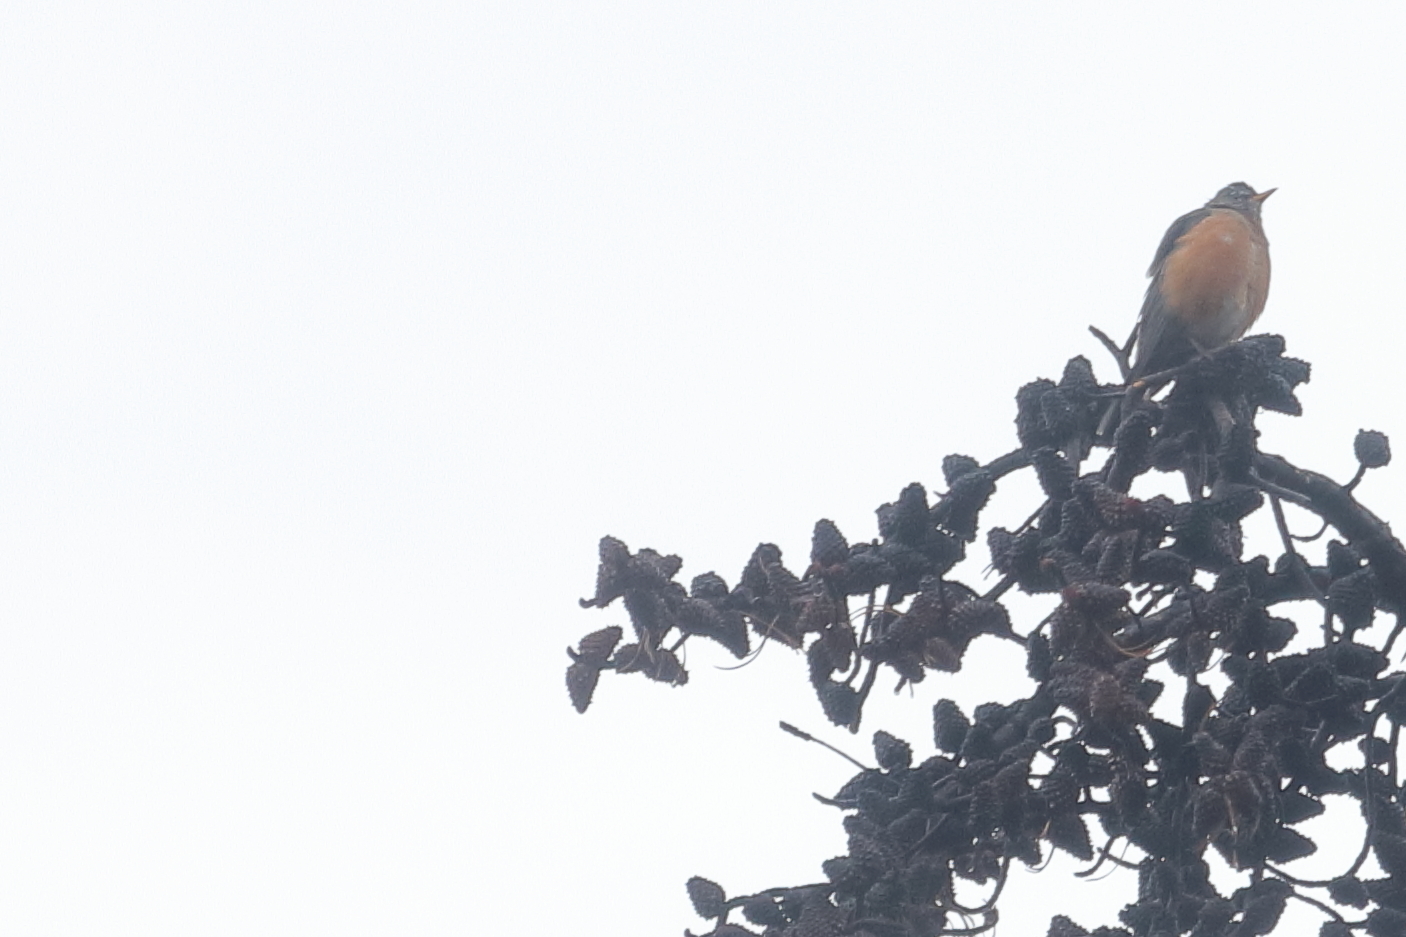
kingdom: Animalia
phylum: Chordata
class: Aves
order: Passeriformes
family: Turdidae
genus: Turdus
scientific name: Turdus migratorius
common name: American robin
